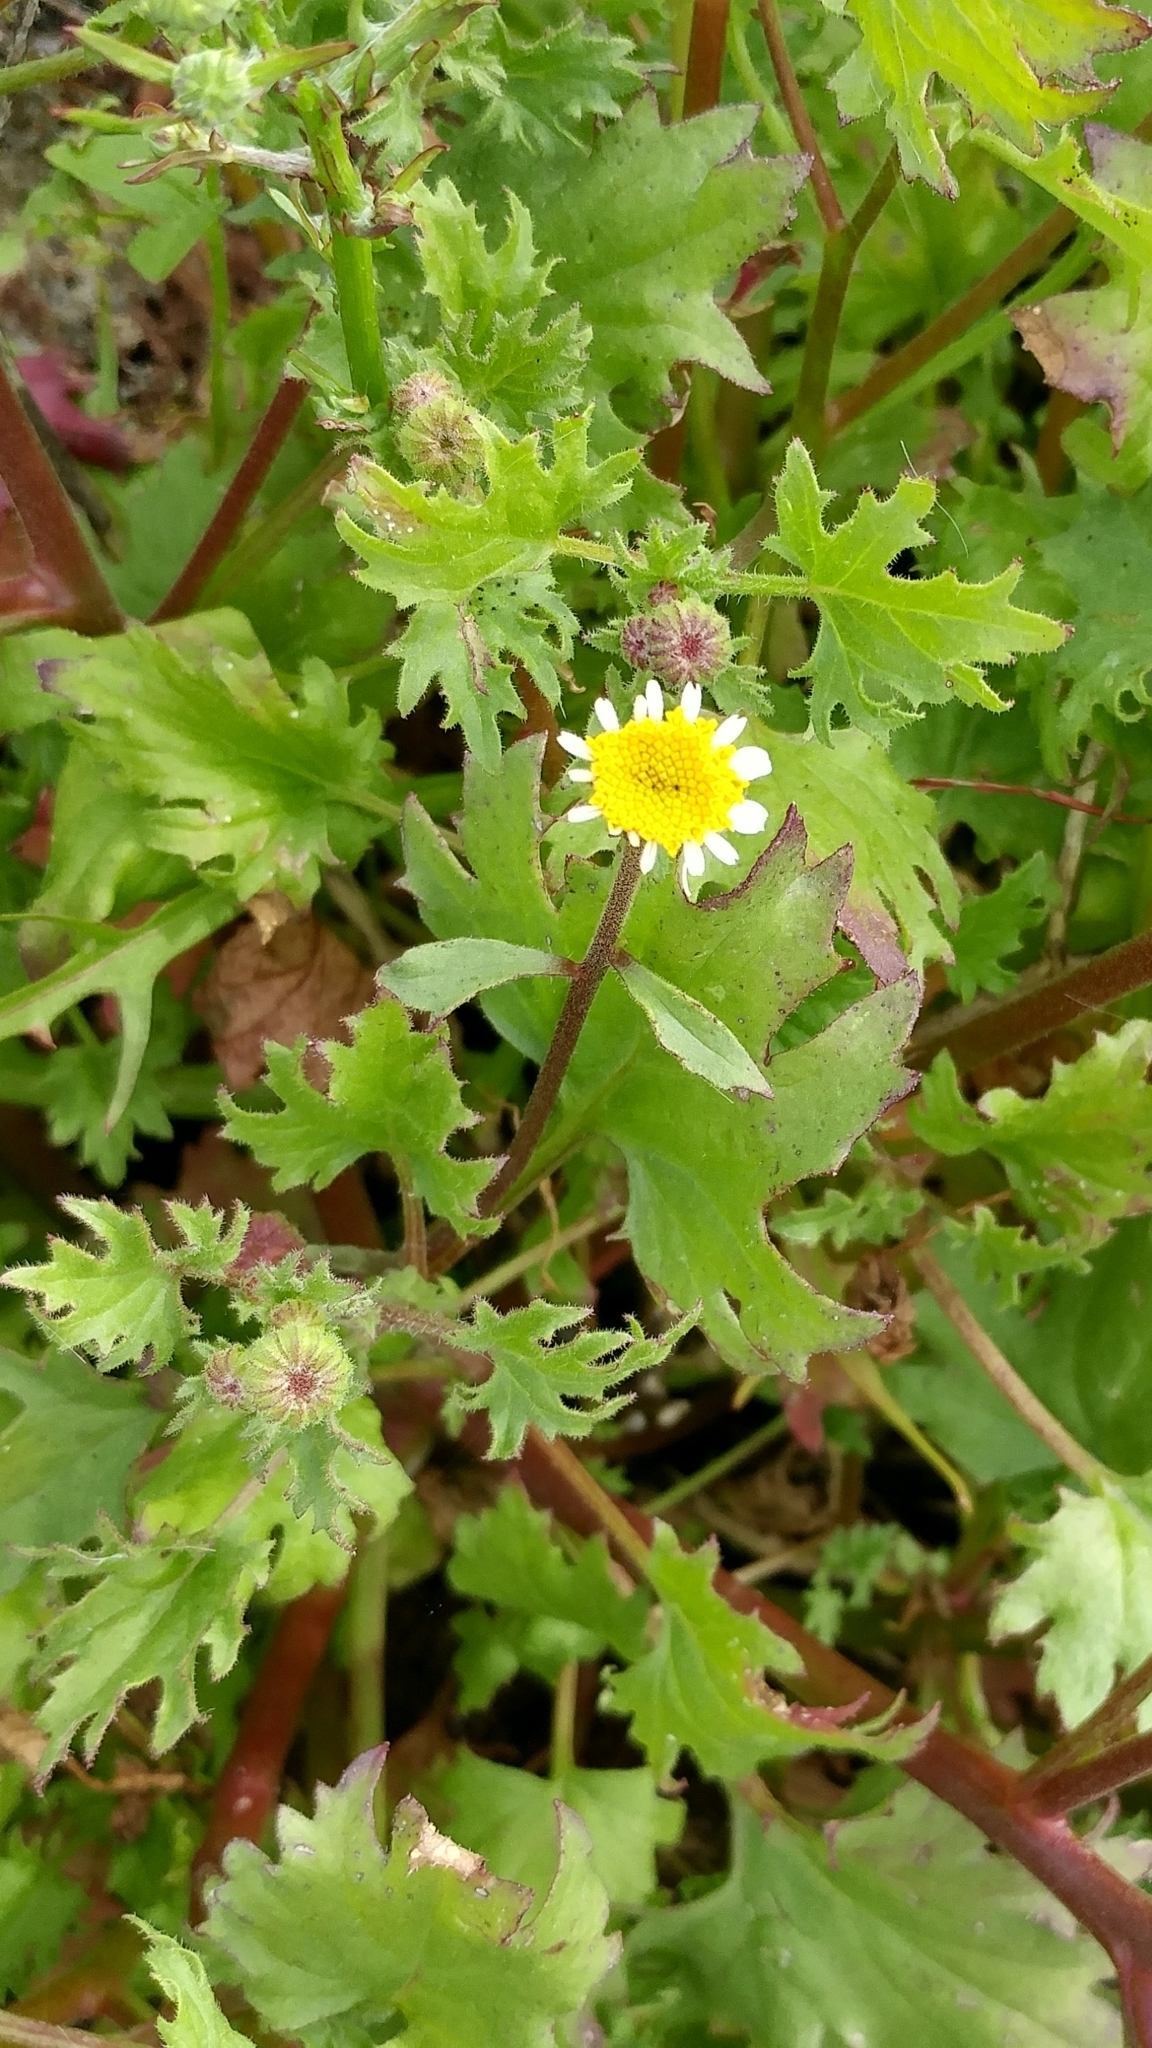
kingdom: Plantae
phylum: Tracheophyta
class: Magnoliopsida
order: Asterales
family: Asteraceae
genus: Laphamia
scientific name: Laphamia emoryi
